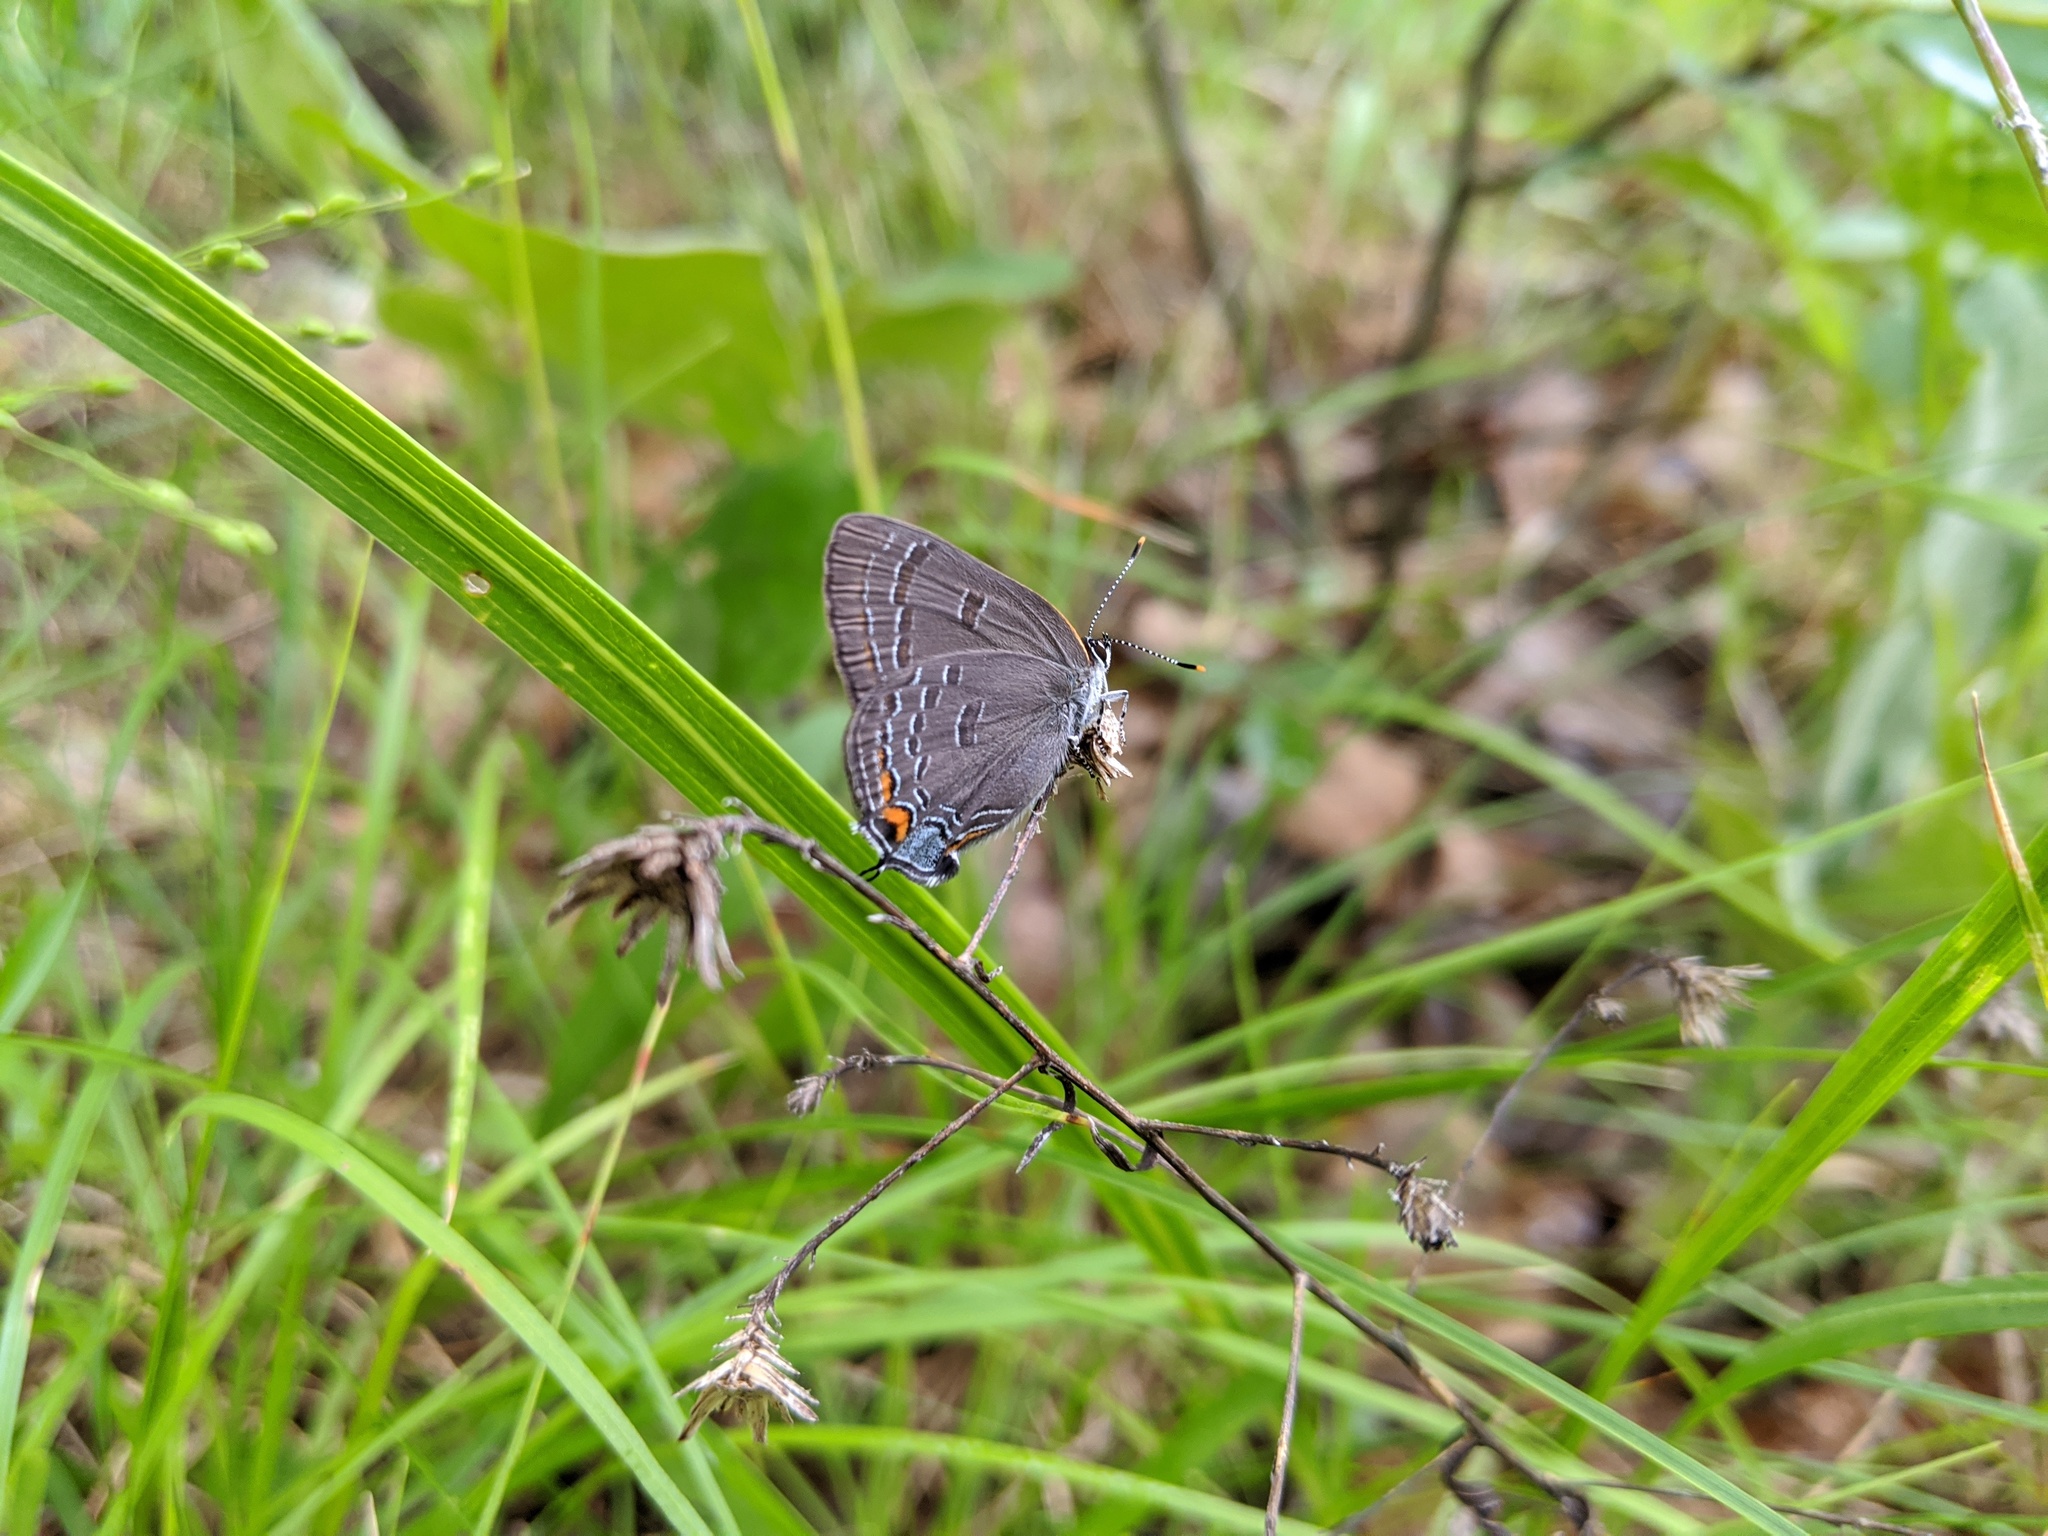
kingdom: Animalia
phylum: Arthropoda
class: Insecta
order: Lepidoptera
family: Lycaenidae
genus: Satyrium
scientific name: Satyrium calanus
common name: Banded hairstreak
